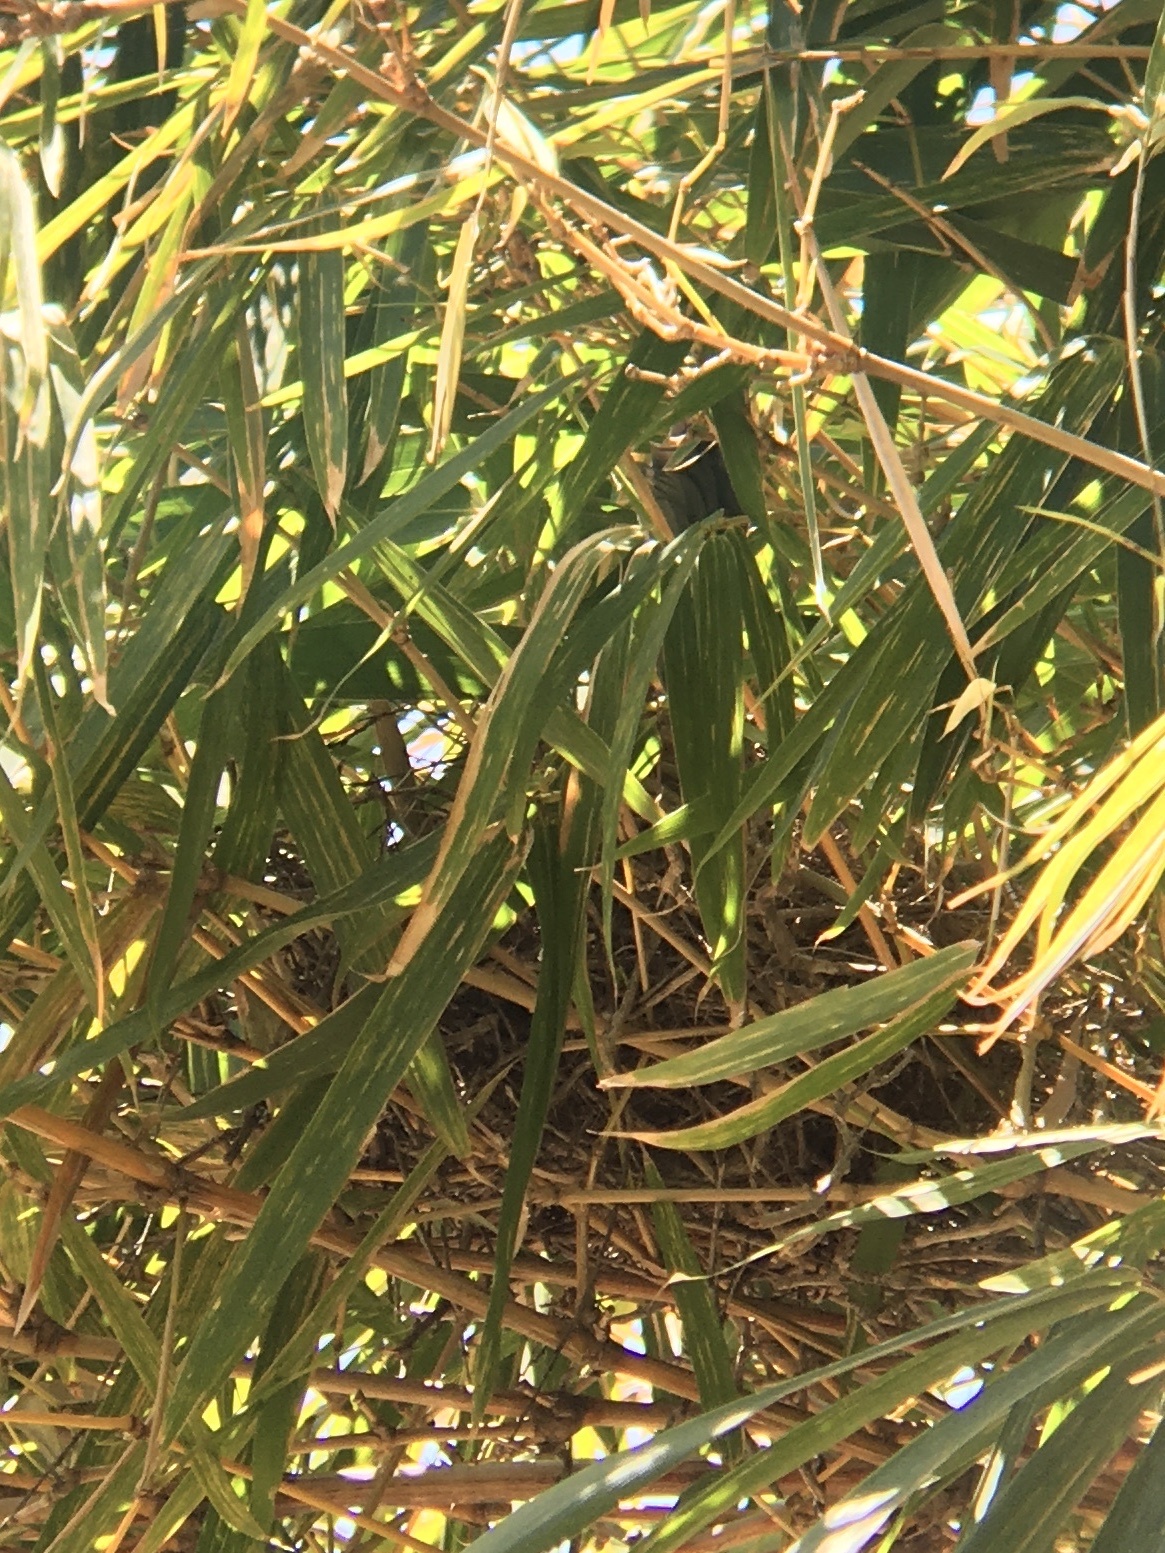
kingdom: Animalia
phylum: Chordata
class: Aves
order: Passeriformes
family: Corvidae
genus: Aphelocoma
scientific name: Aphelocoma californica
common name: California scrub-jay
